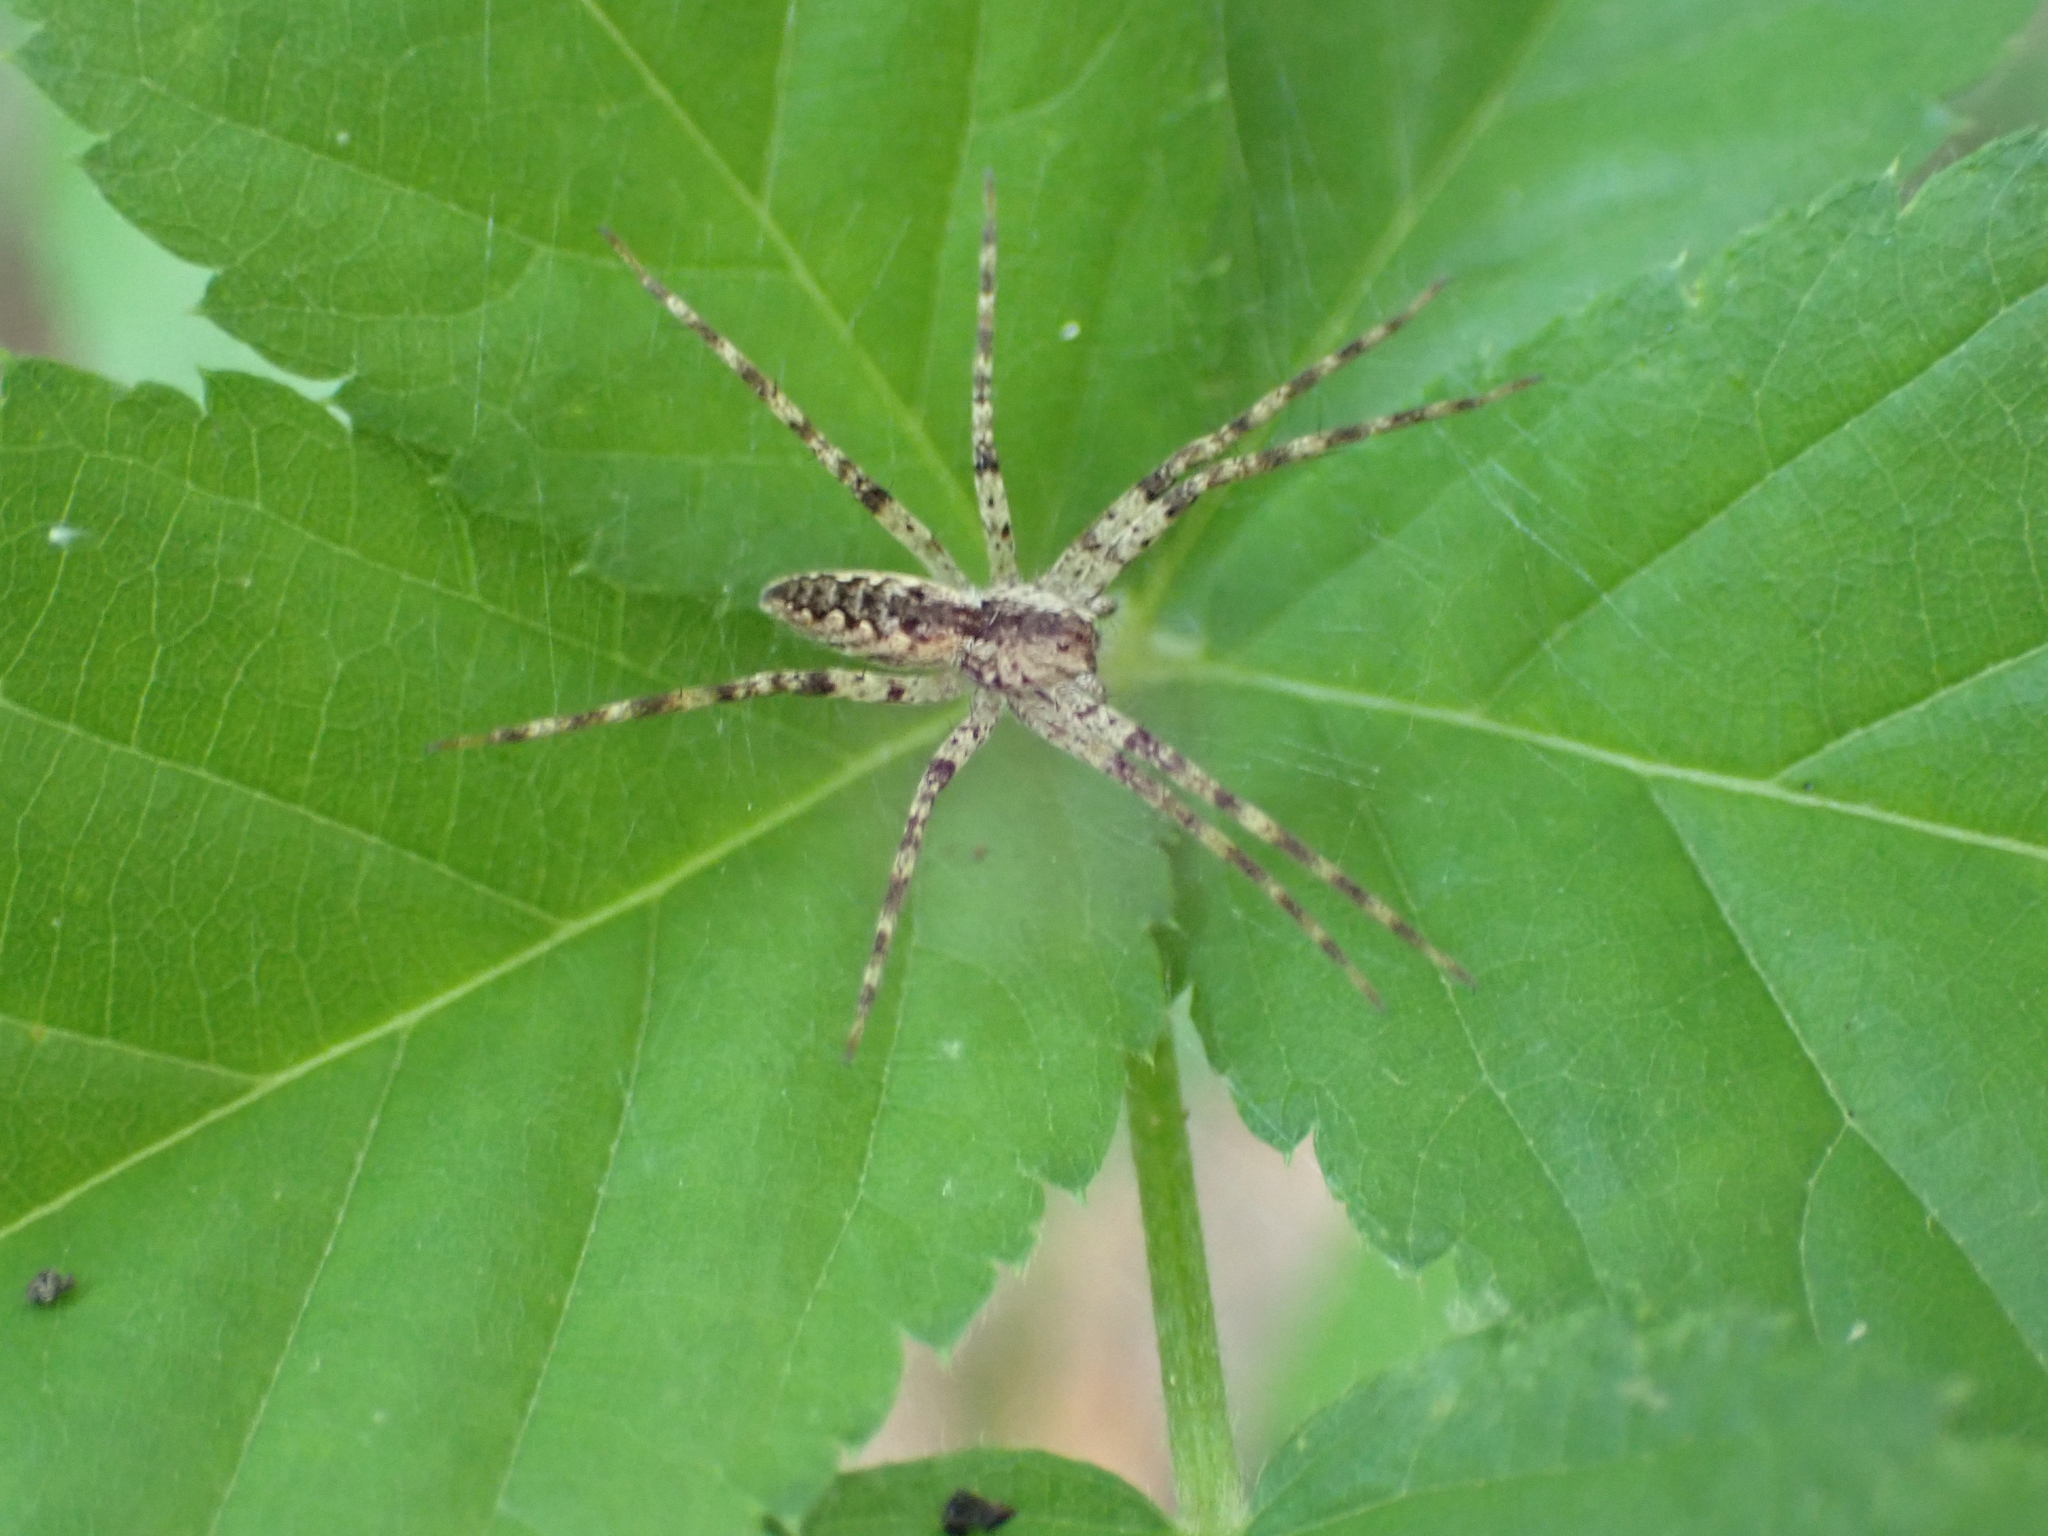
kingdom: Animalia
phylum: Arthropoda
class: Arachnida
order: Araneae
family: Pisauridae
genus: Pisaurina
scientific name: Pisaurina mira
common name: American nursery web spider
